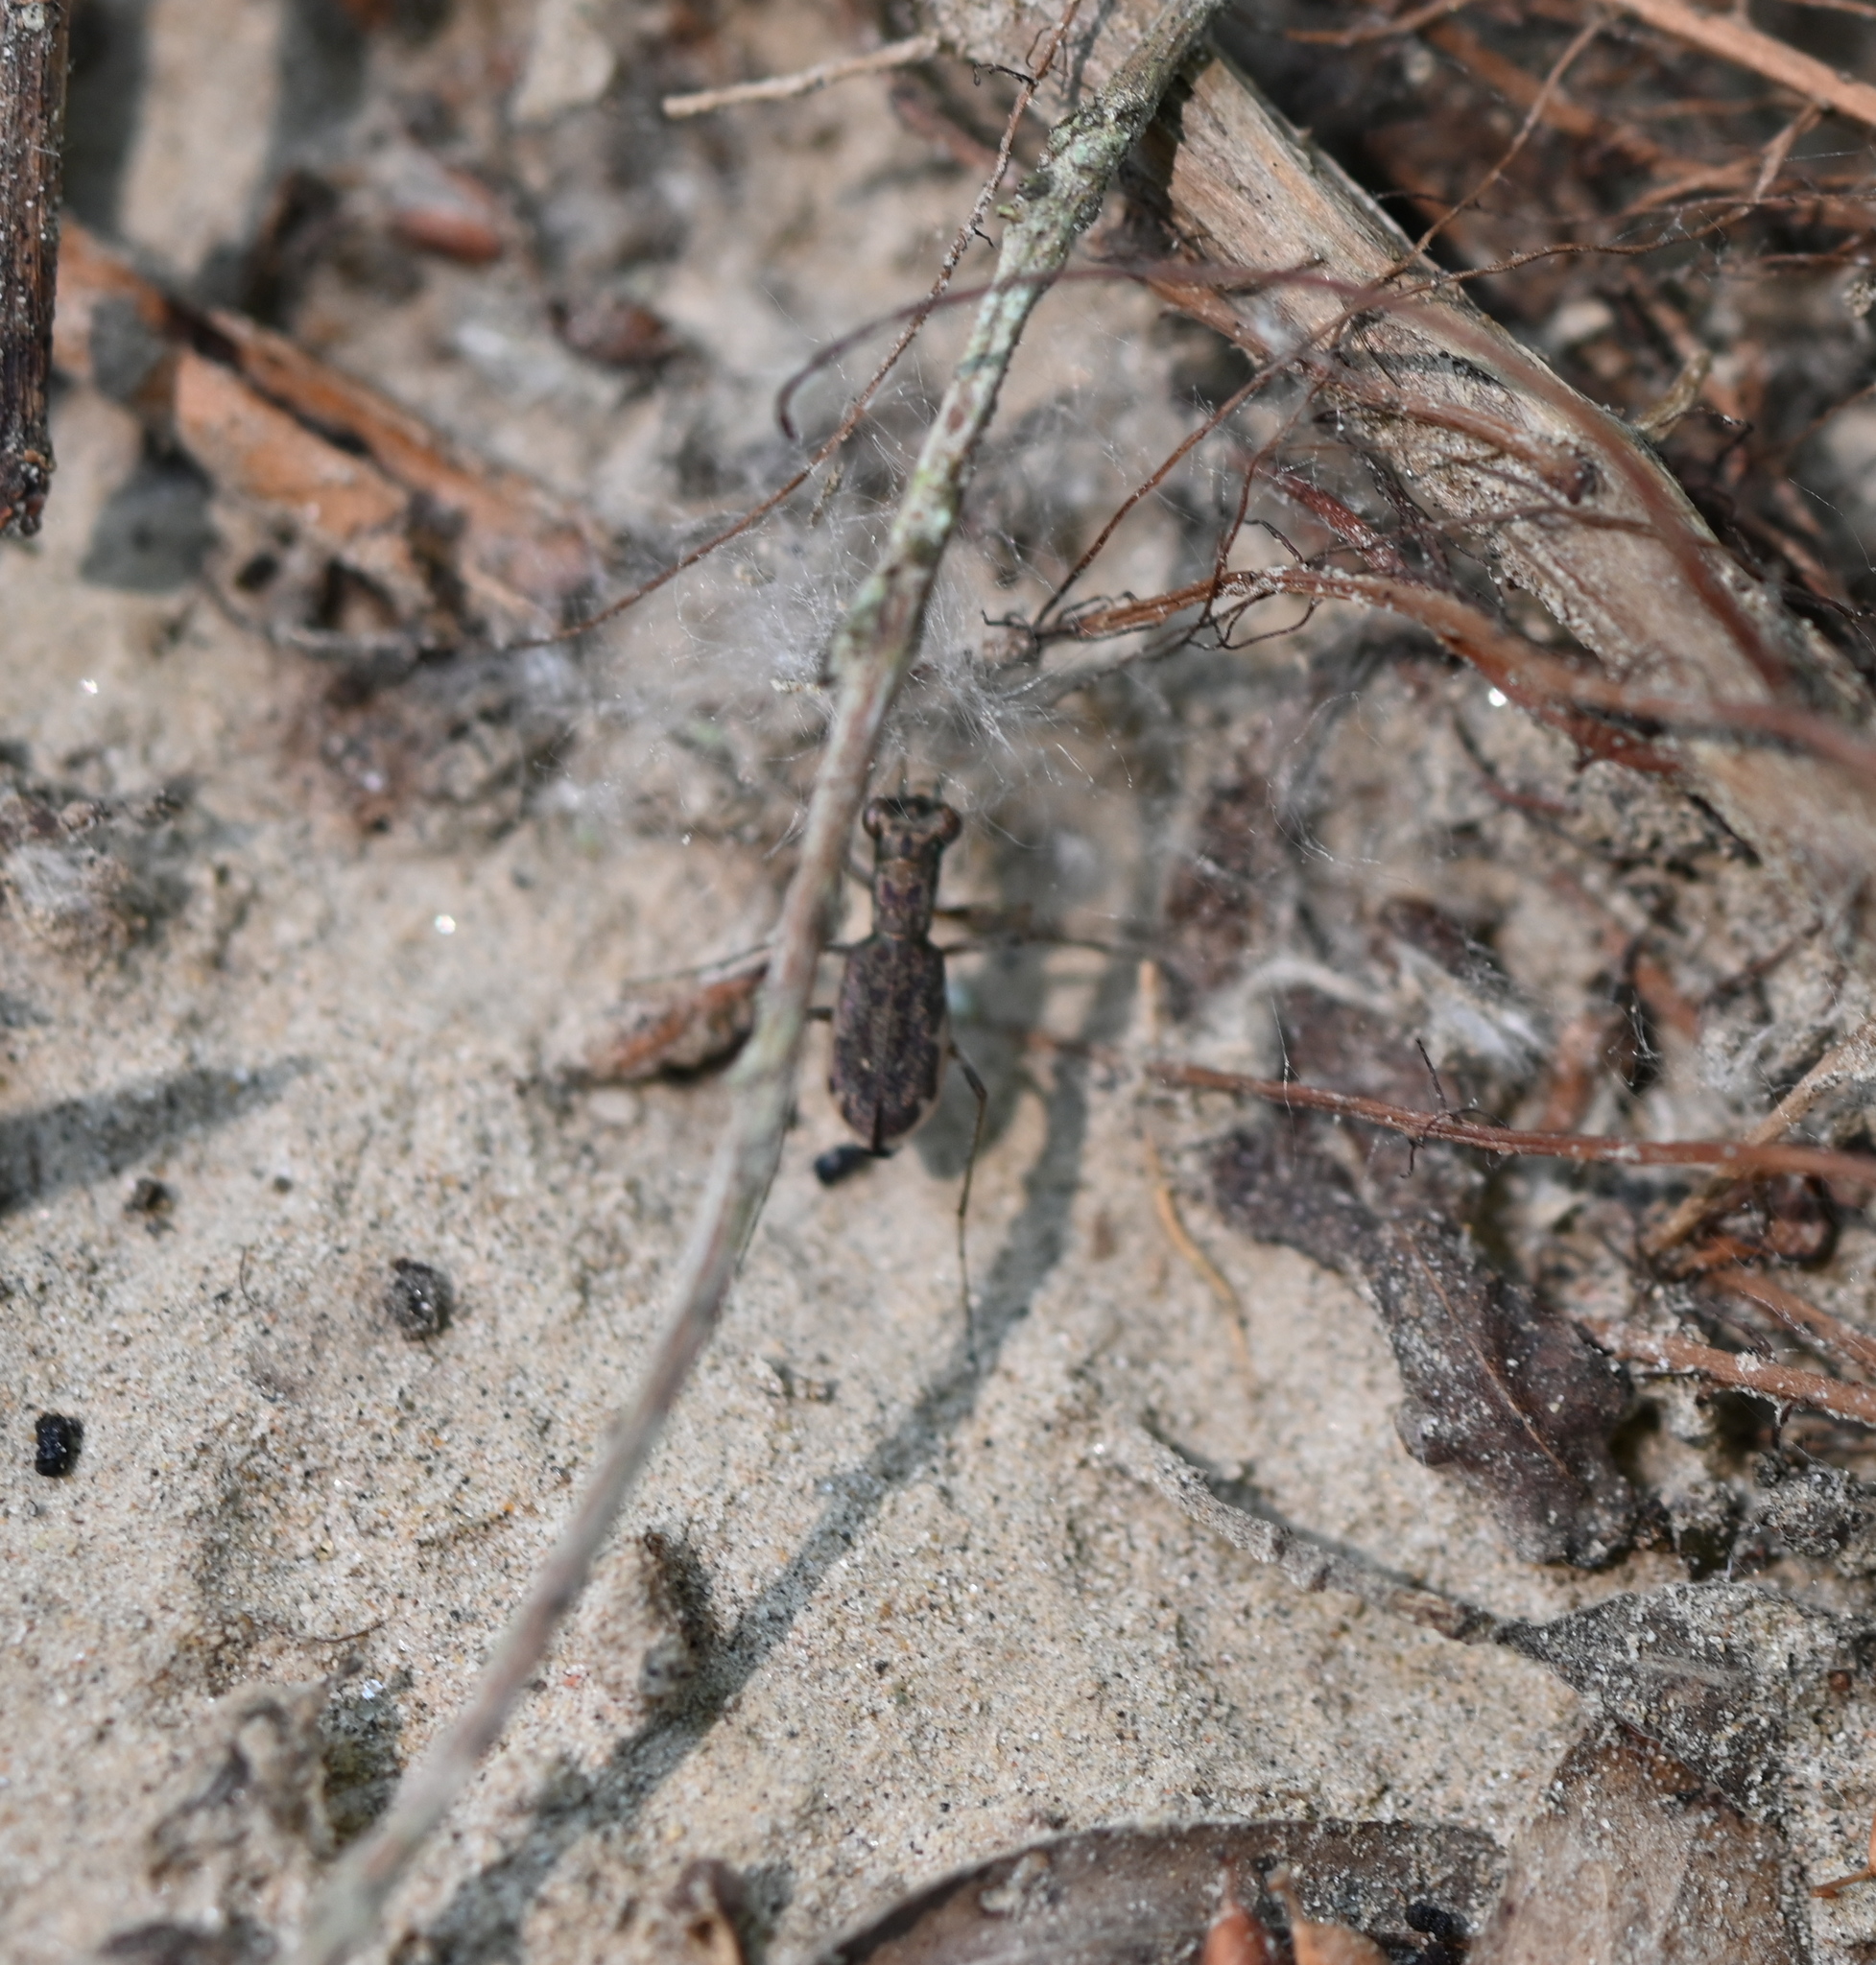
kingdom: Animalia
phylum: Arthropoda
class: Insecta
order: Coleoptera
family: Carabidae
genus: Cylindera
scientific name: Cylindera cursitans
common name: Ant-like tiger beetle
